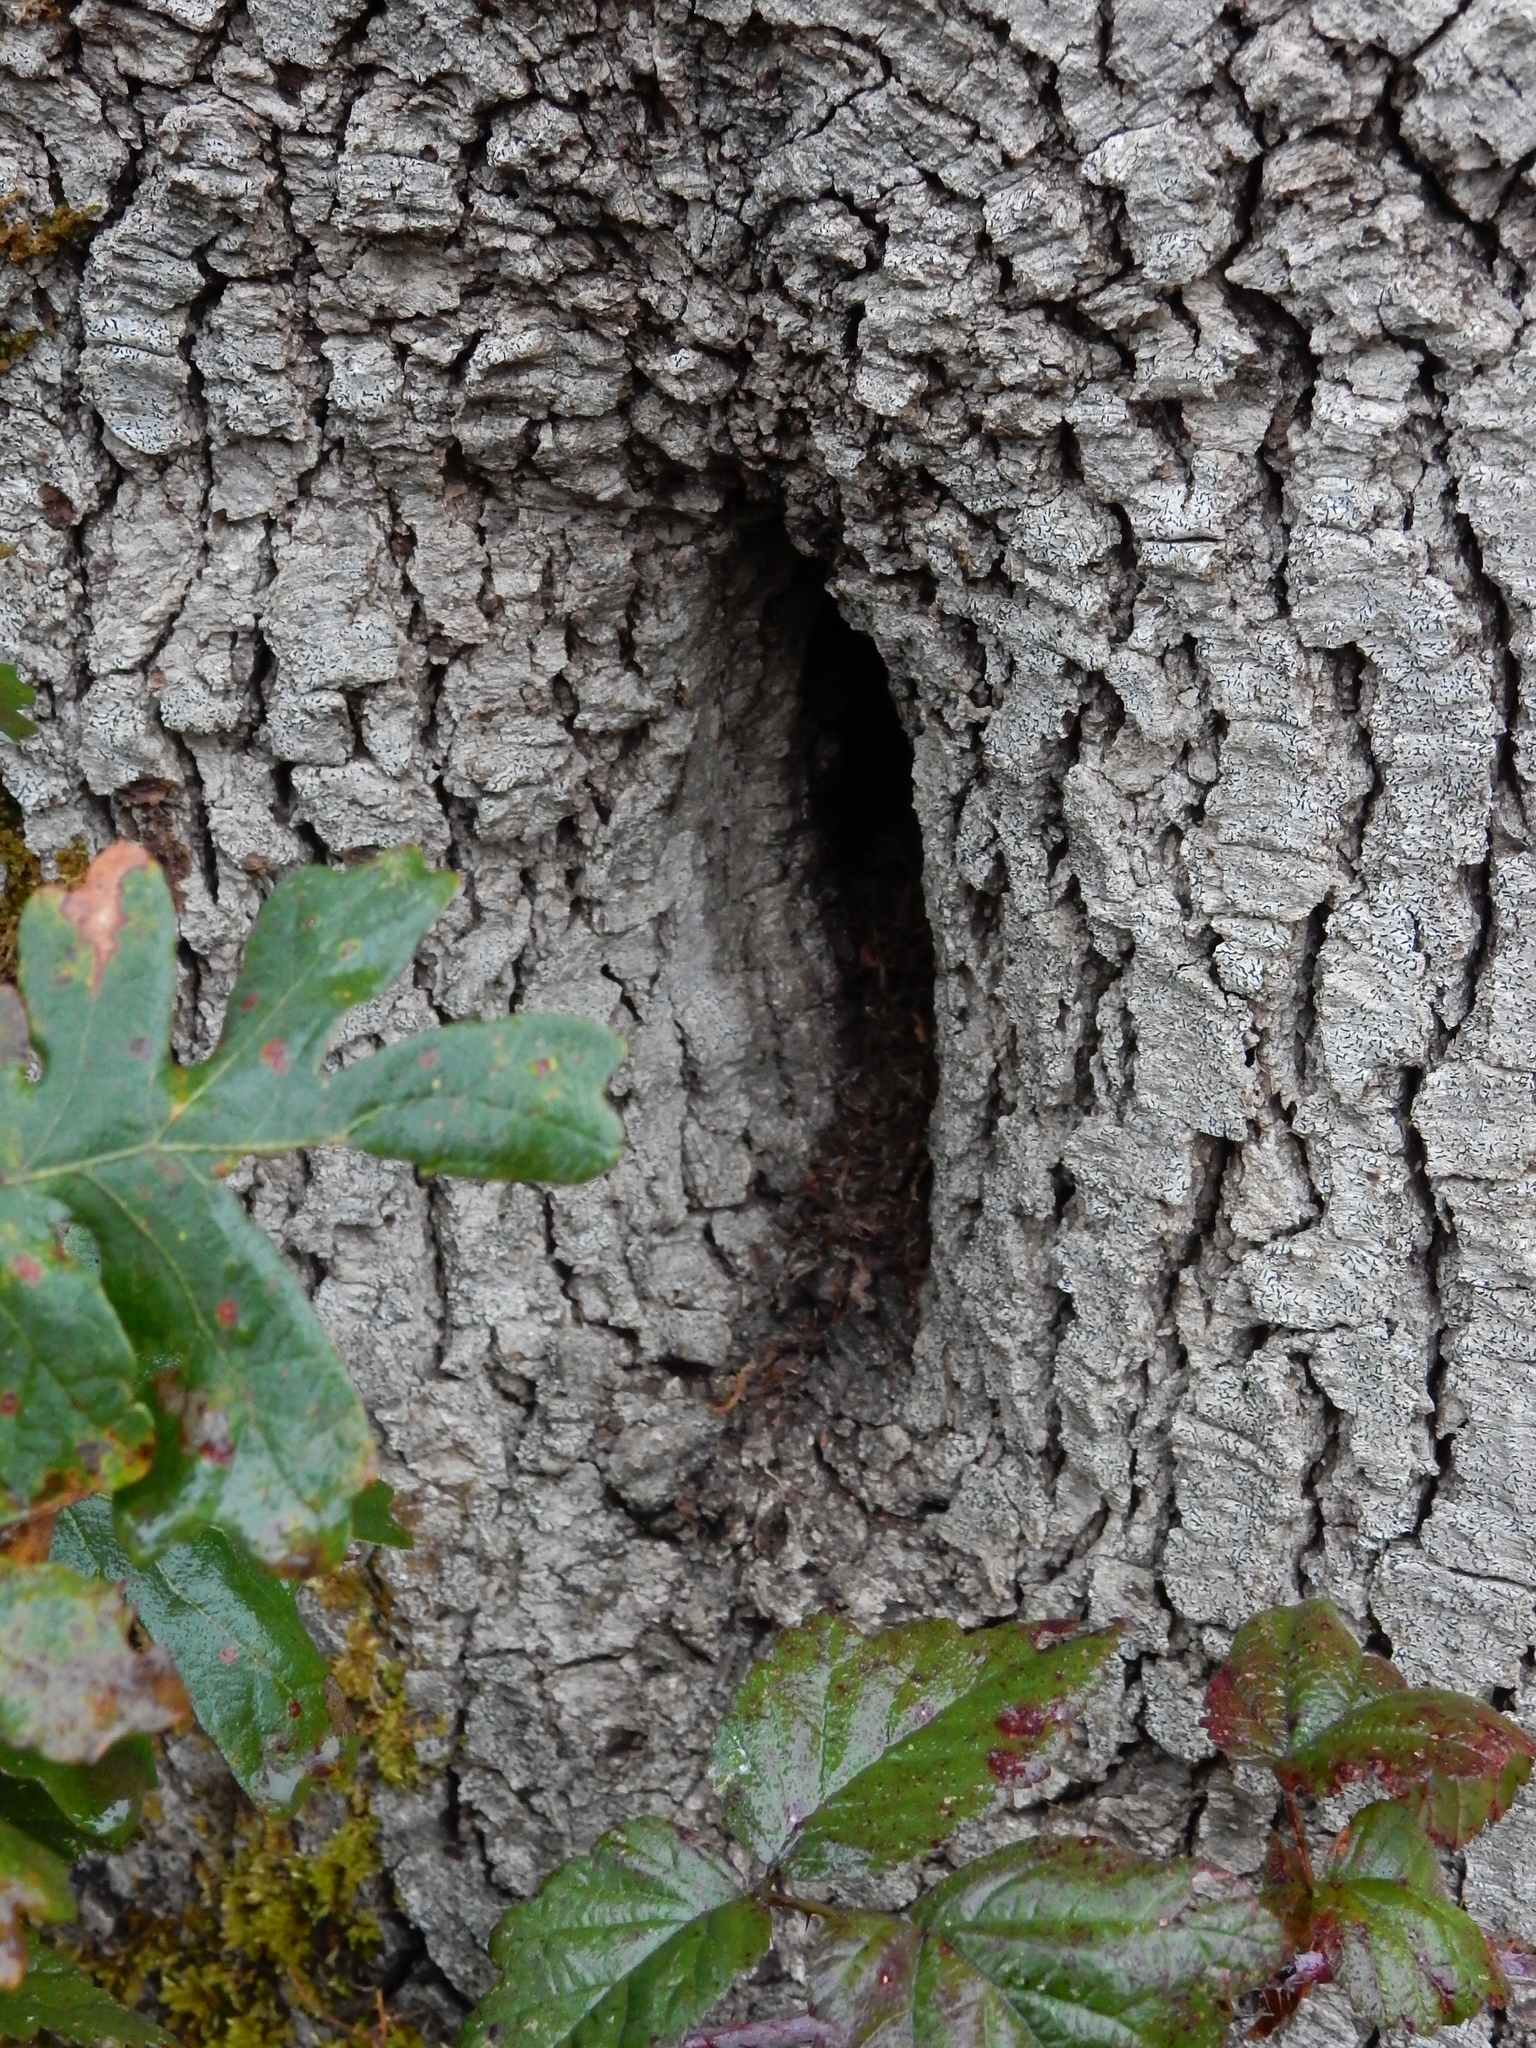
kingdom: Plantae
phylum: Tracheophyta
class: Magnoliopsida
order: Fagales
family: Fagaceae
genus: Quercus
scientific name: Quercus garryana
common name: Garry oak
